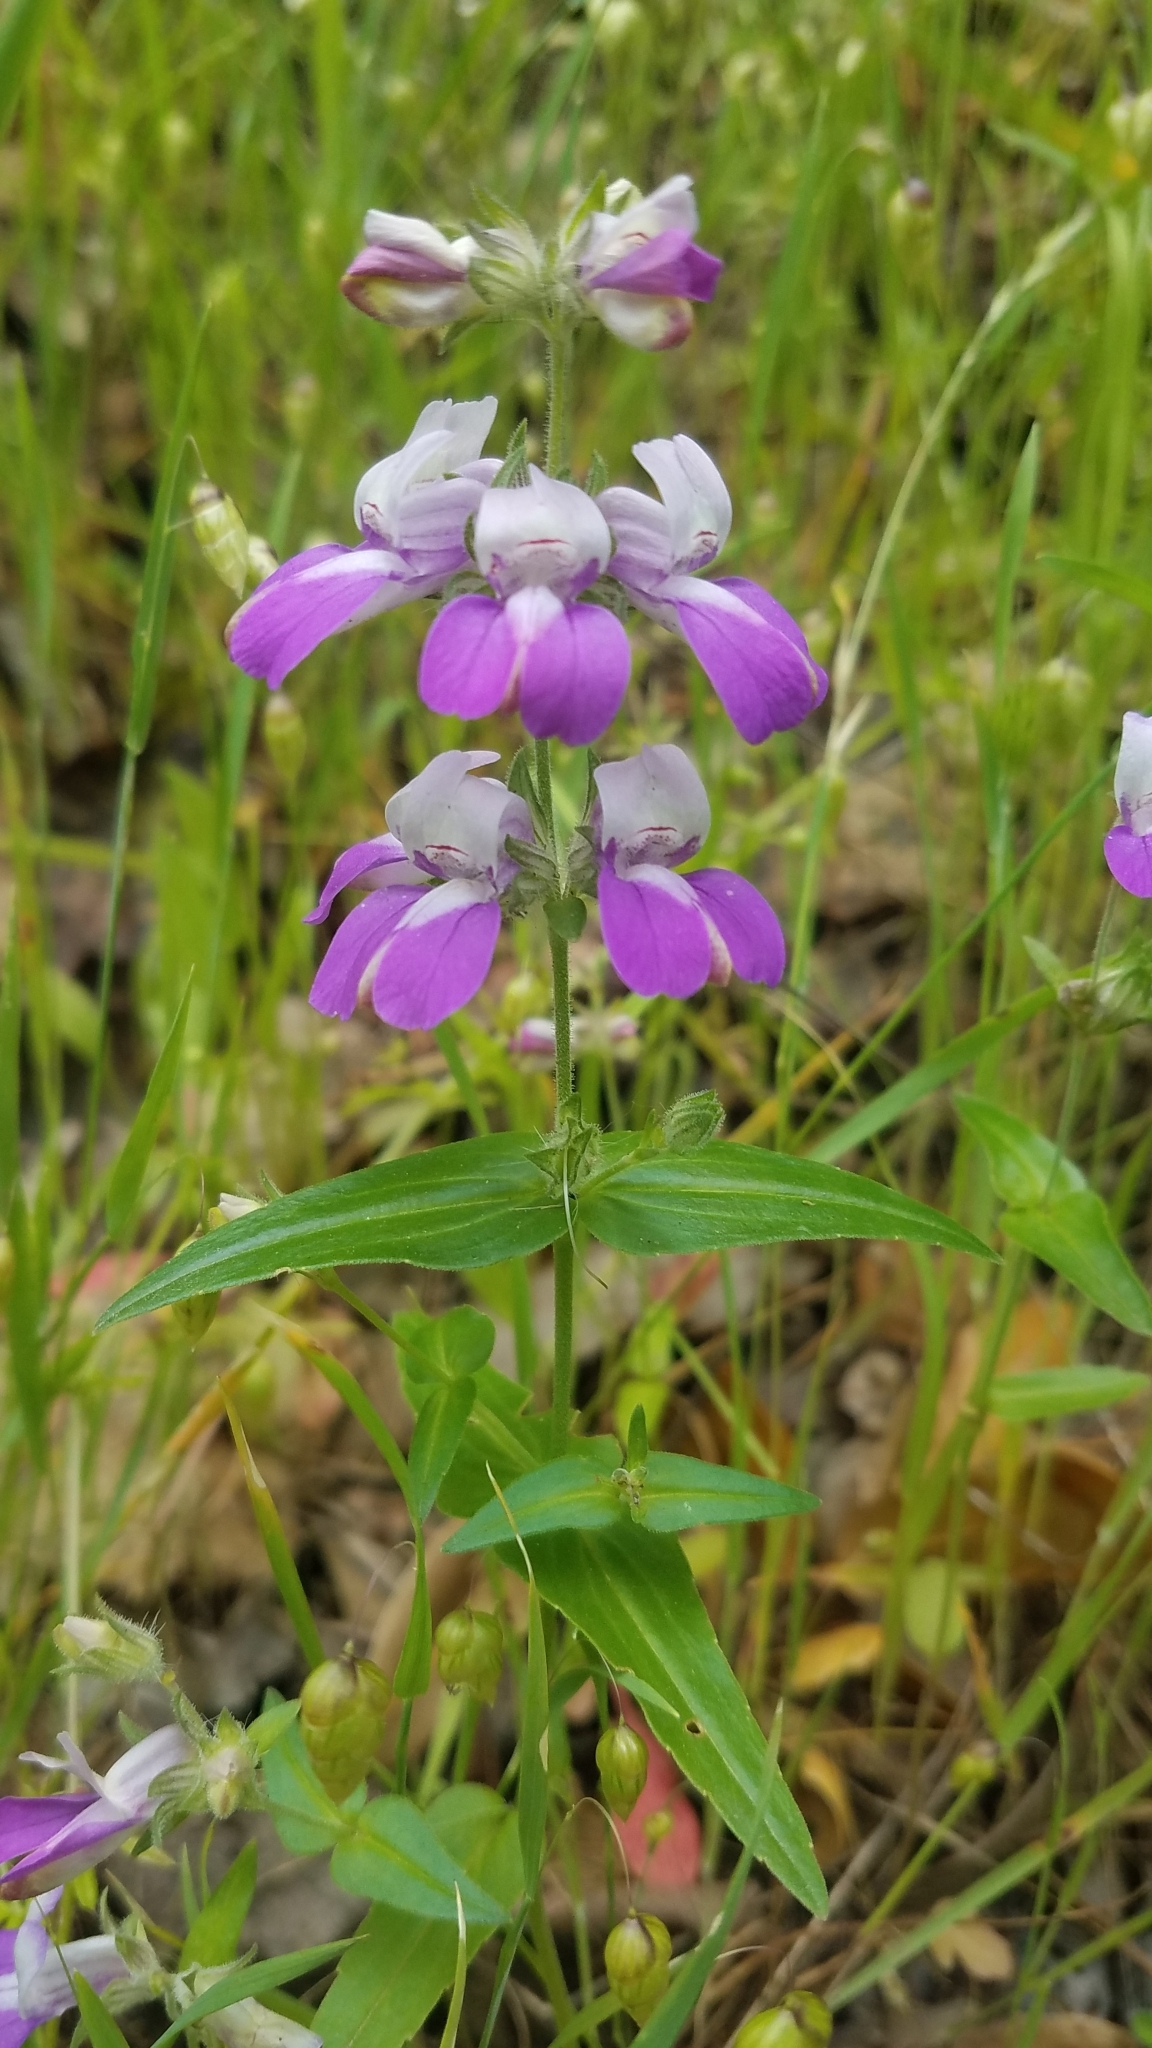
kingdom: Plantae
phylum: Tracheophyta
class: Magnoliopsida
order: Lamiales
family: Plantaginaceae
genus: Collinsia
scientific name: Collinsia heterophylla
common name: Chinese-houses
